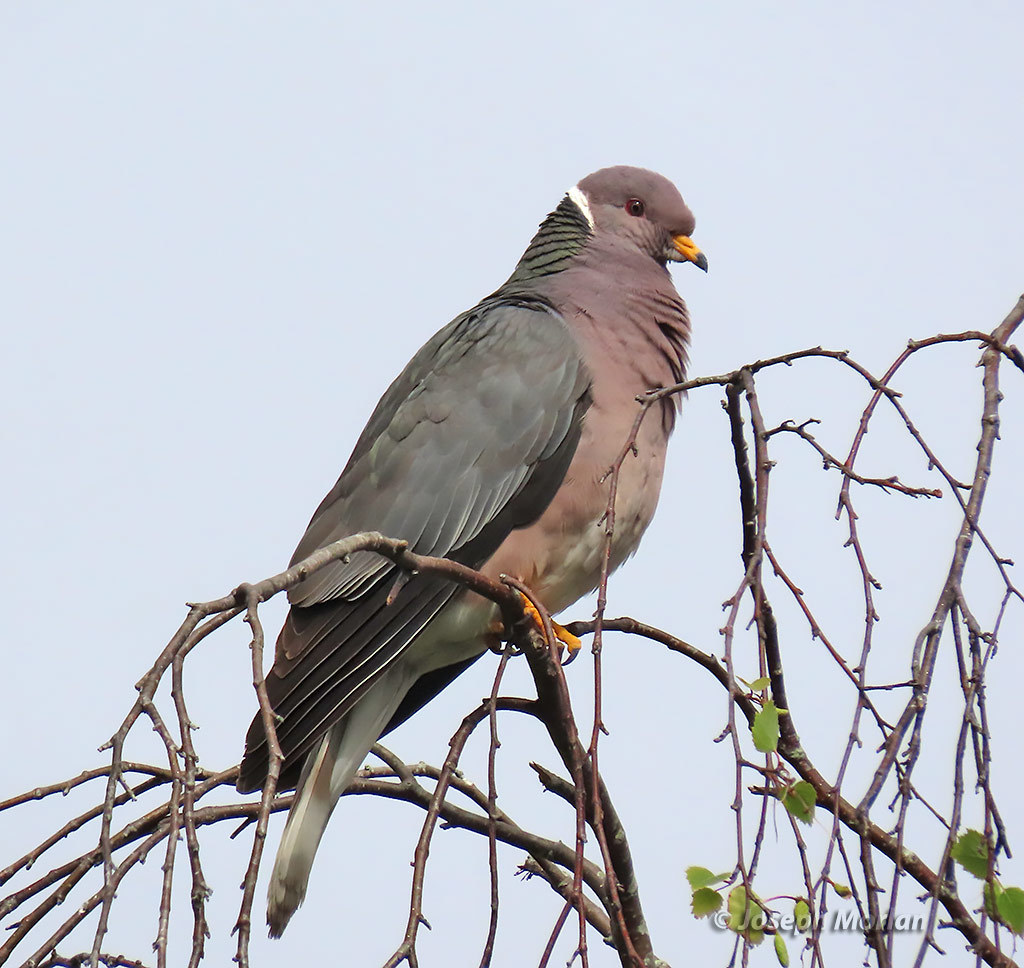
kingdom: Animalia
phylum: Chordata
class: Aves
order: Columbiformes
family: Columbidae
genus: Patagioenas
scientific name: Patagioenas fasciata
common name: Band-tailed pigeon
